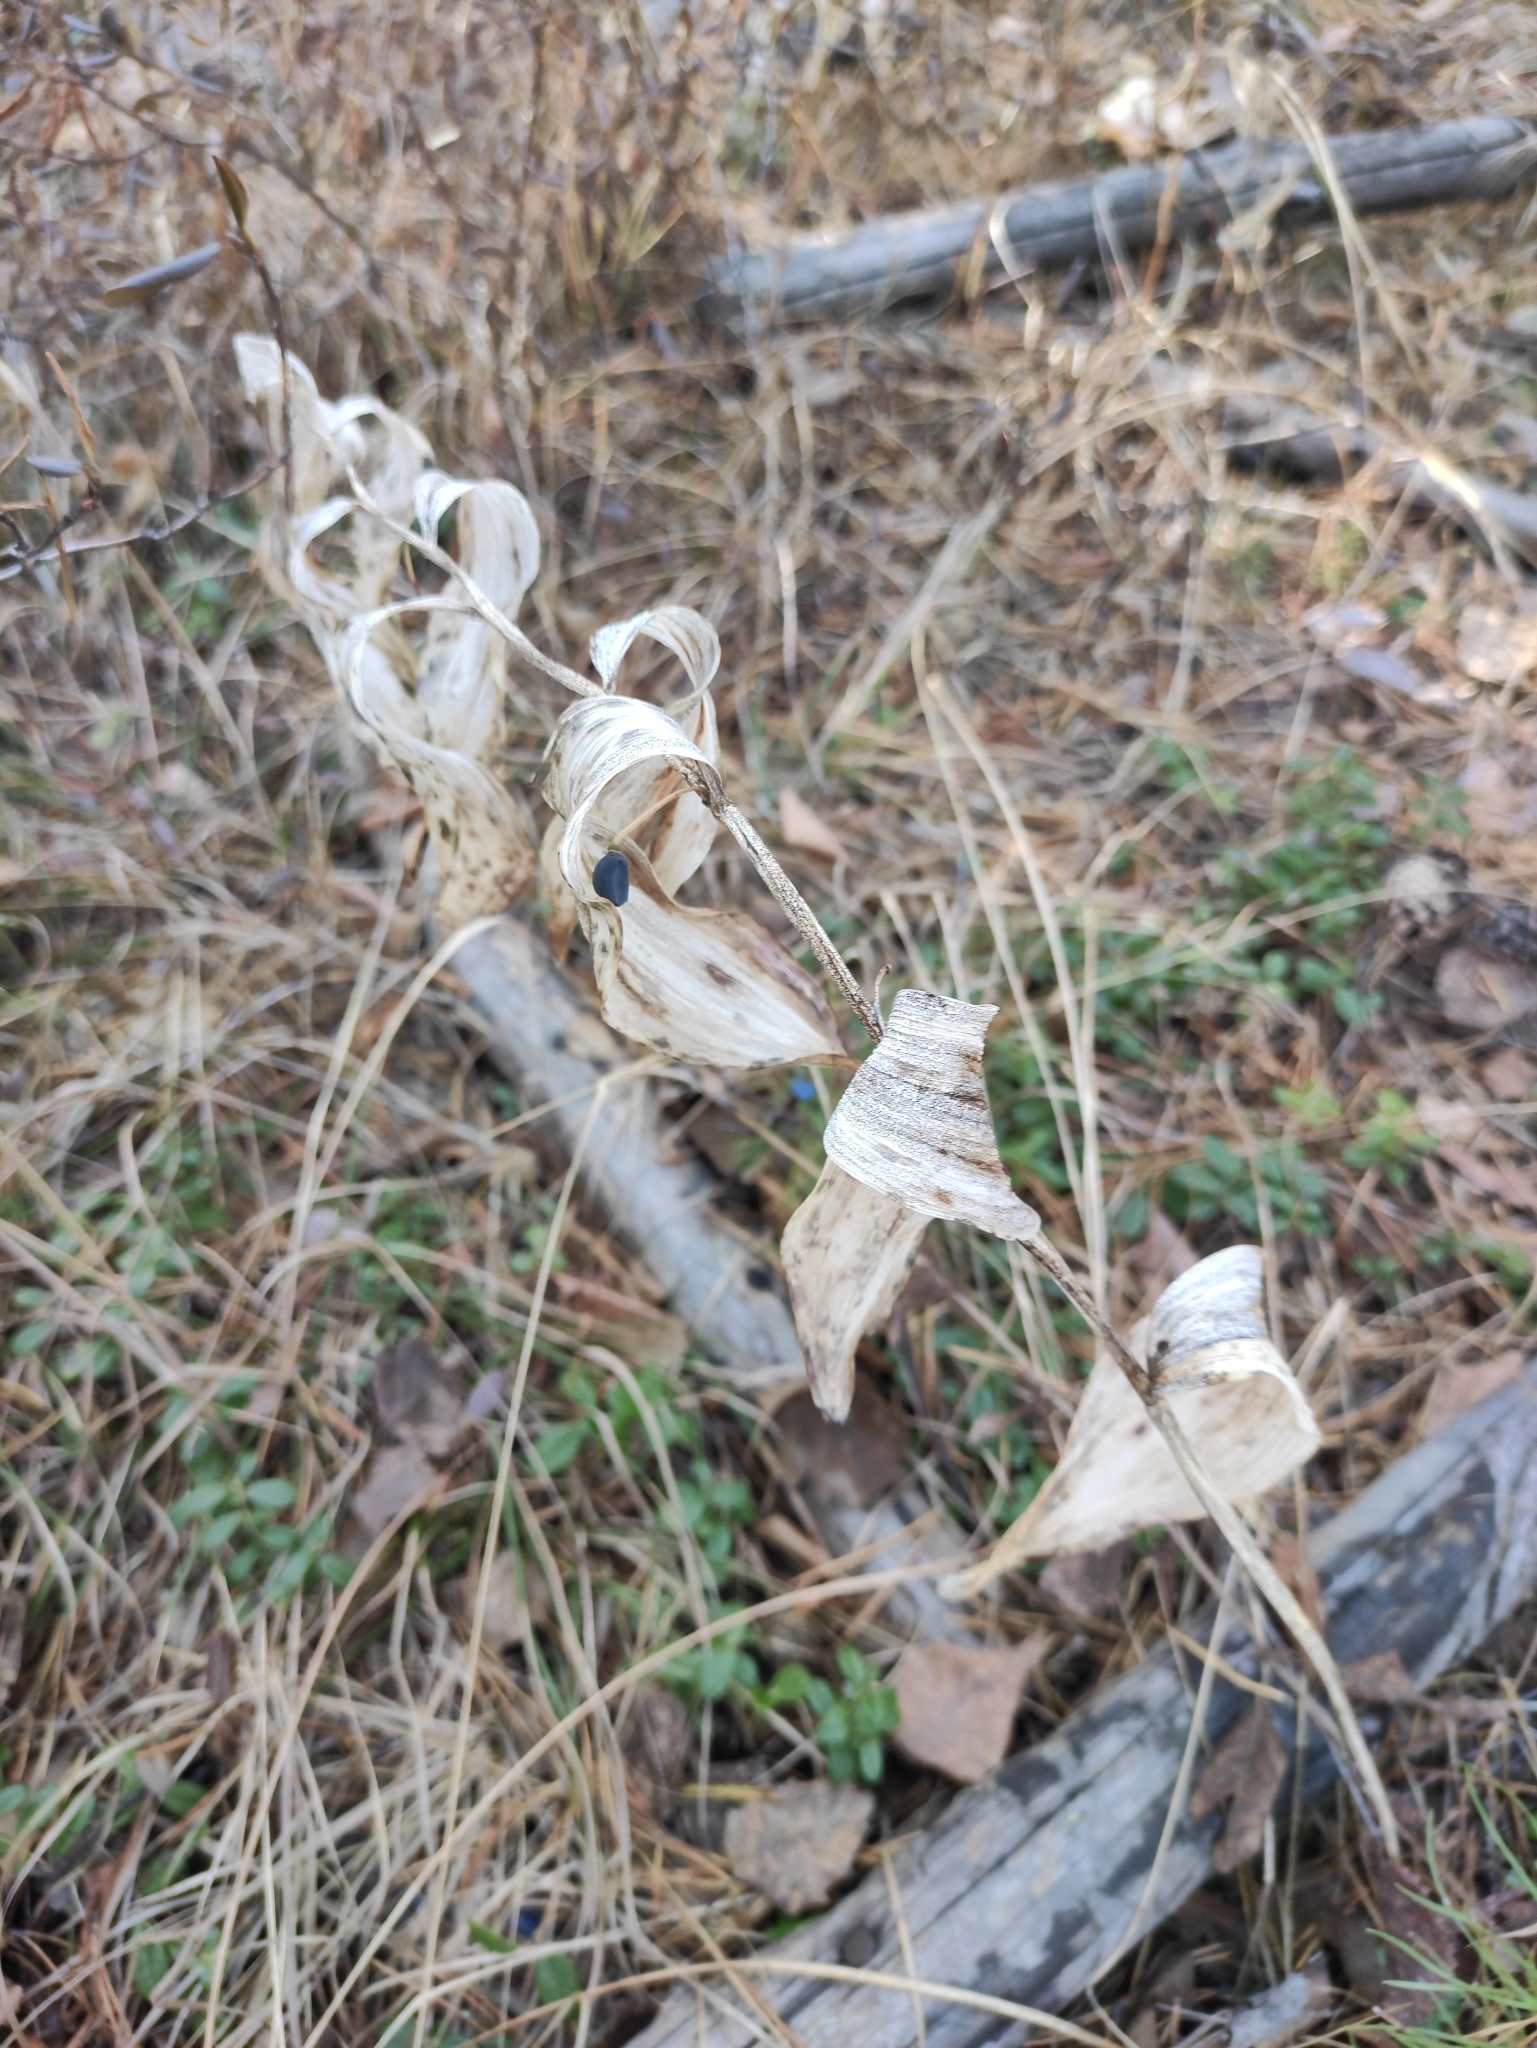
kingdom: Plantae
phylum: Tracheophyta
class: Liliopsida
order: Asparagales
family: Asparagaceae
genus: Polygonatum
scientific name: Polygonatum odoratum
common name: Angular solomon's-seal
